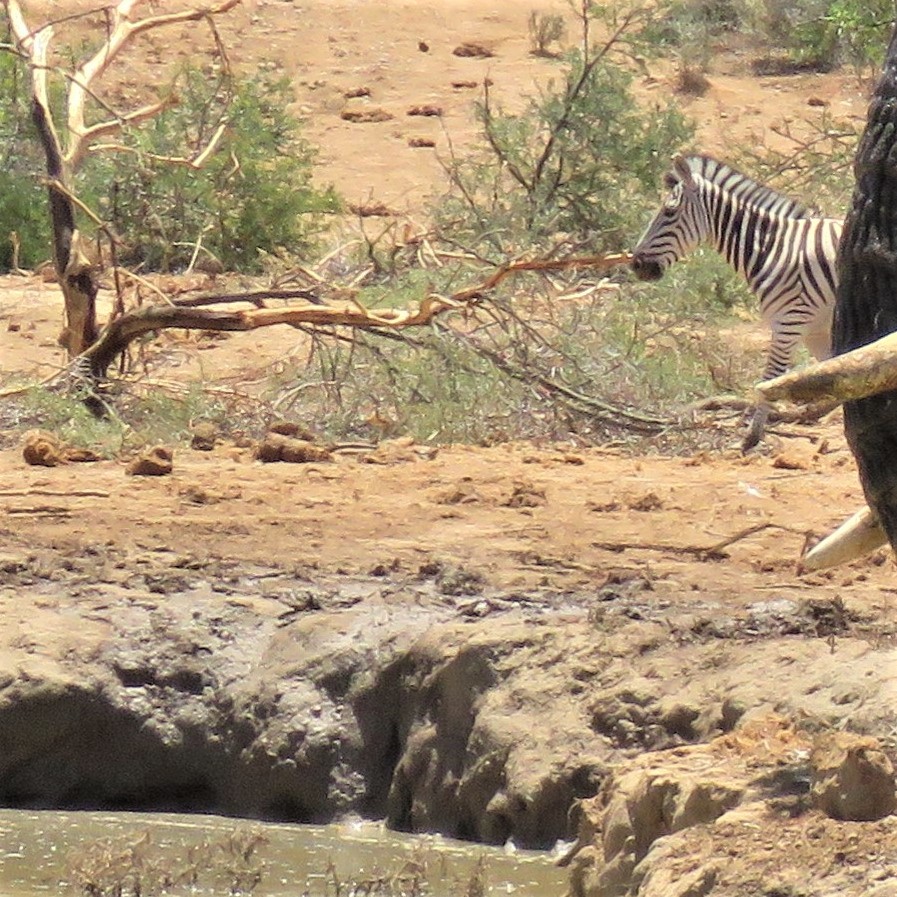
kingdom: Animalia
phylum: Chordata
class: Mammalia
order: Perissodactyla
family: Equidae
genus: Equus
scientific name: Equus quagga
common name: Plains zebra
